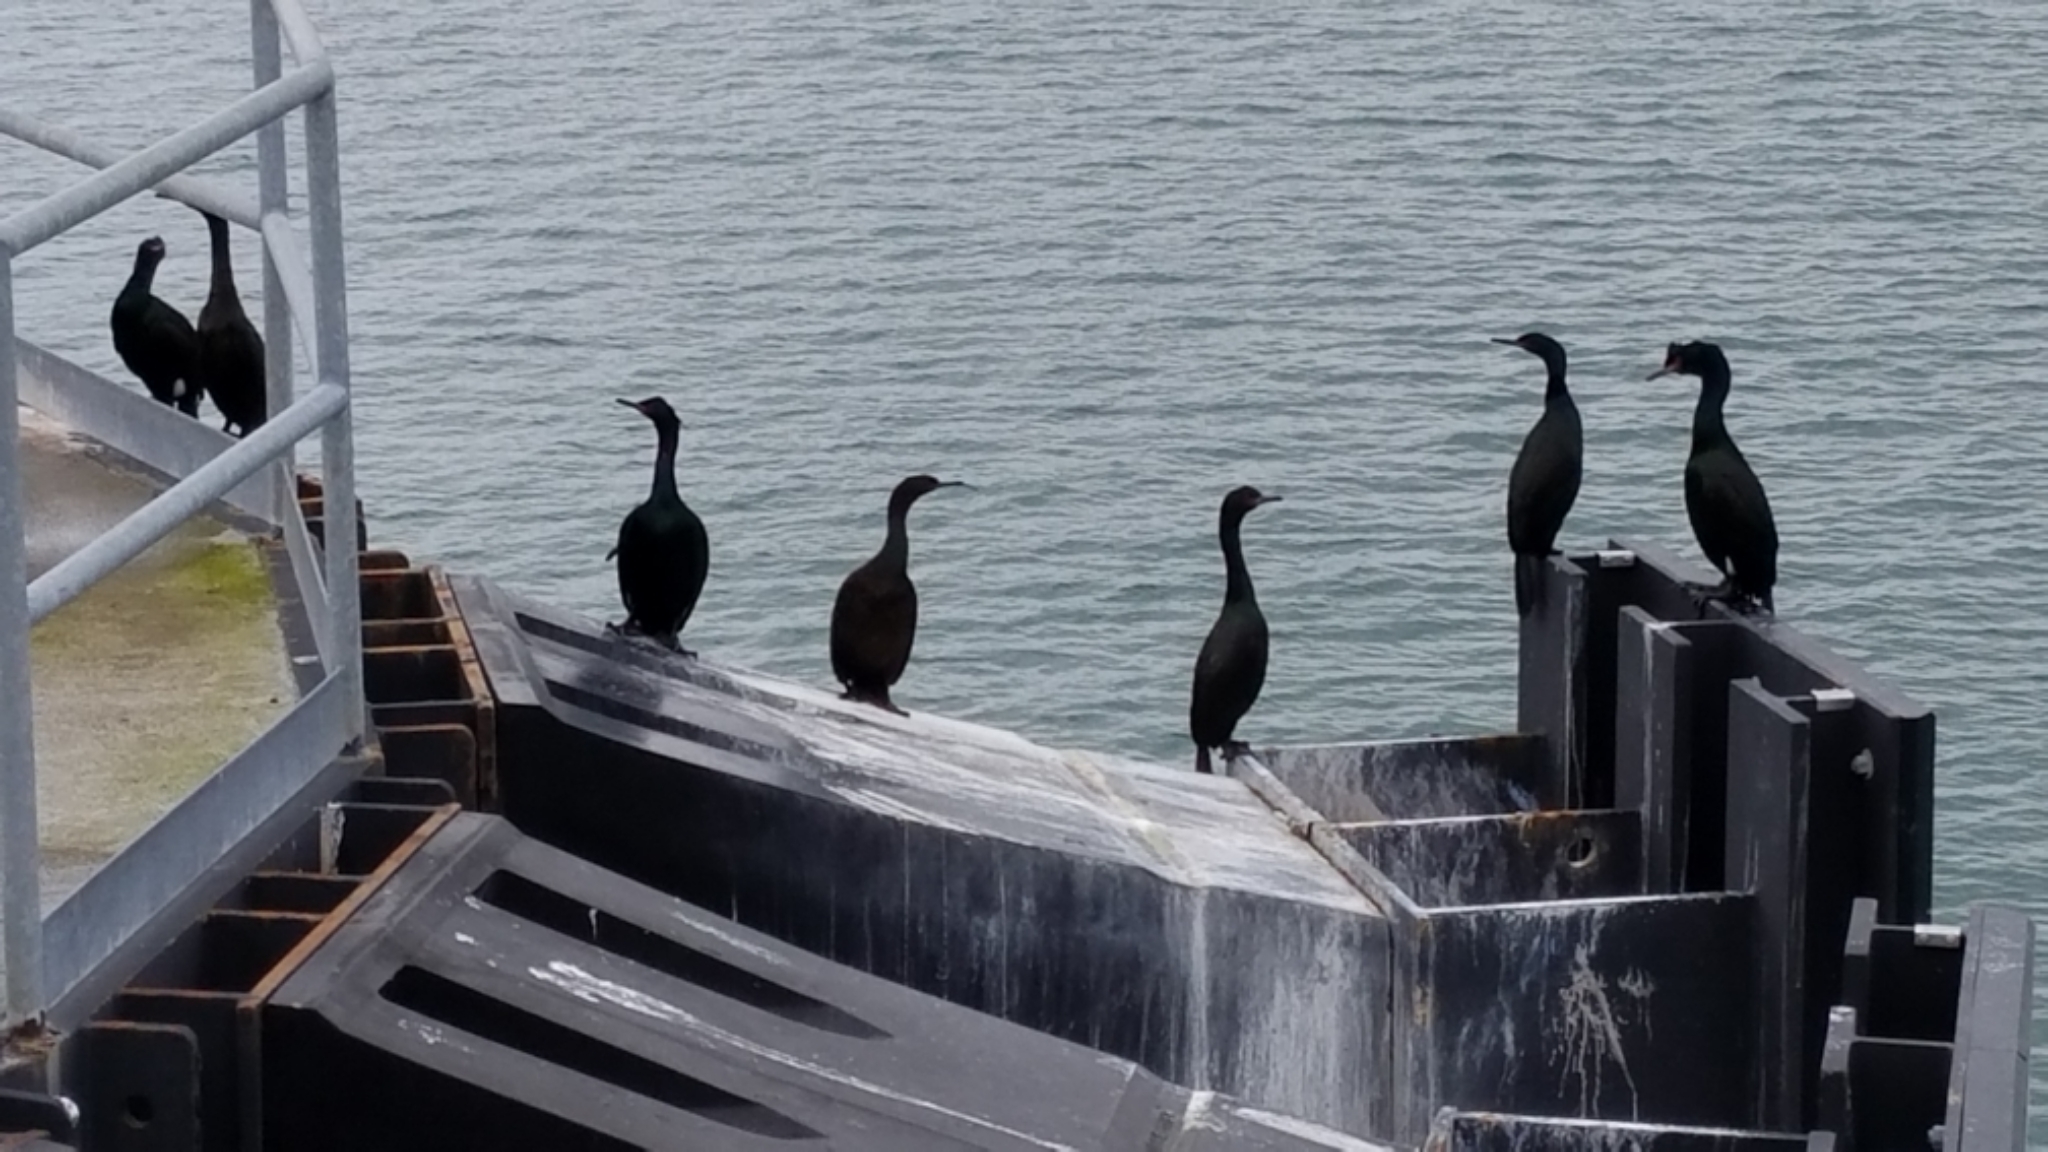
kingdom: Animalia
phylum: Chordata
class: Aves
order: Suliformes
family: Phalacrocoracidae
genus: Phalacrocorax
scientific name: Phalacrocorax pelagicus
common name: Pelagic cormorant
